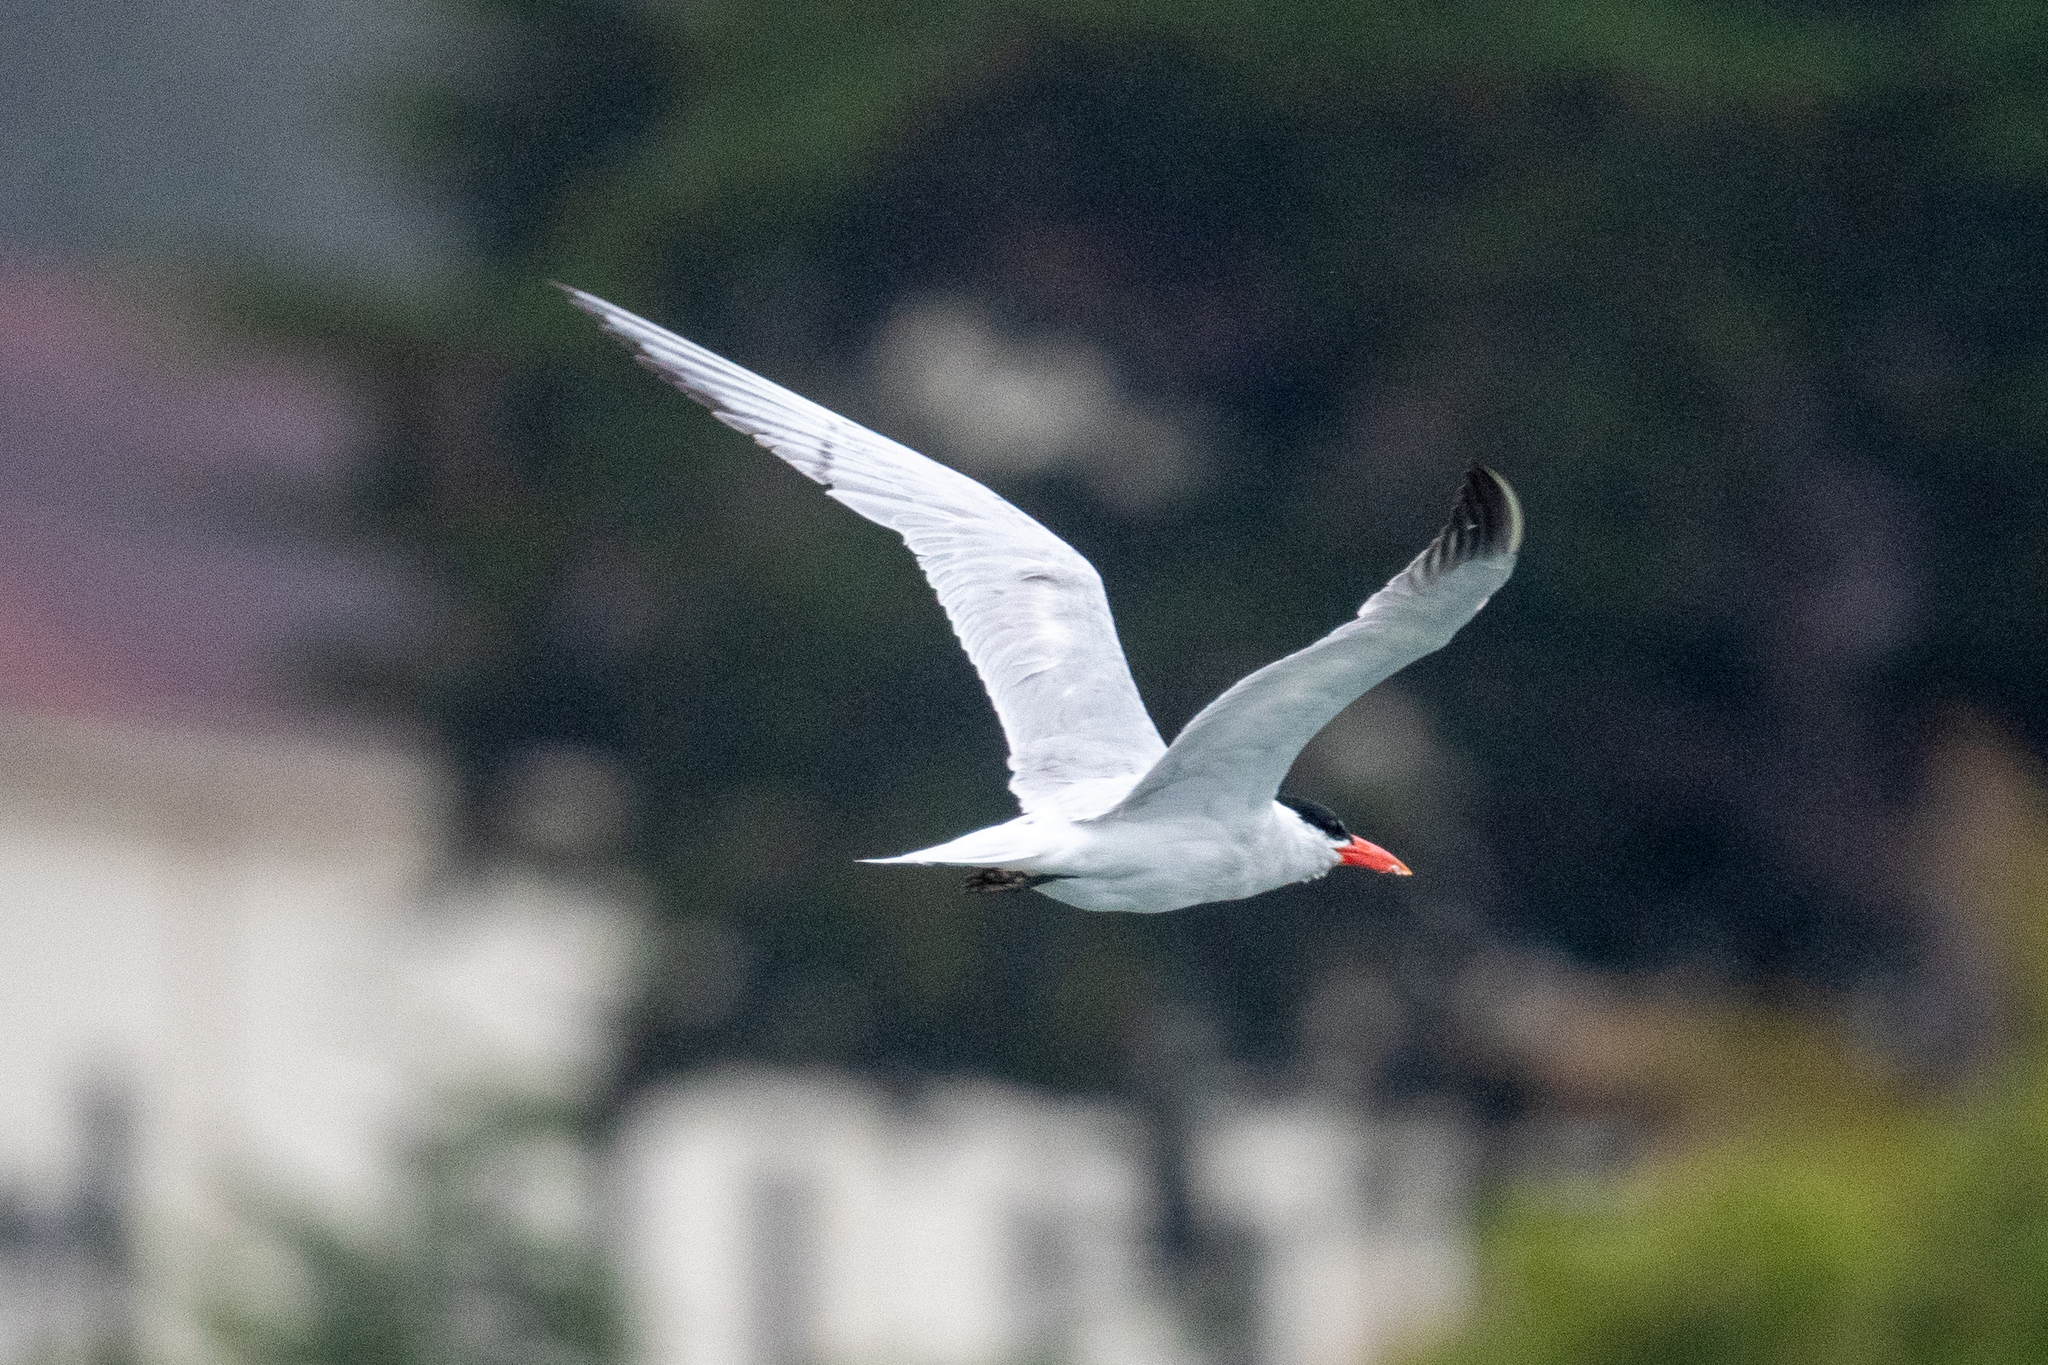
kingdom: Animalia
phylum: Chordata
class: Aves
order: Charadriiformes
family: Laridae
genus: Hydroprogne
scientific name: Hydroprogne caspia
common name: Caspian tern
